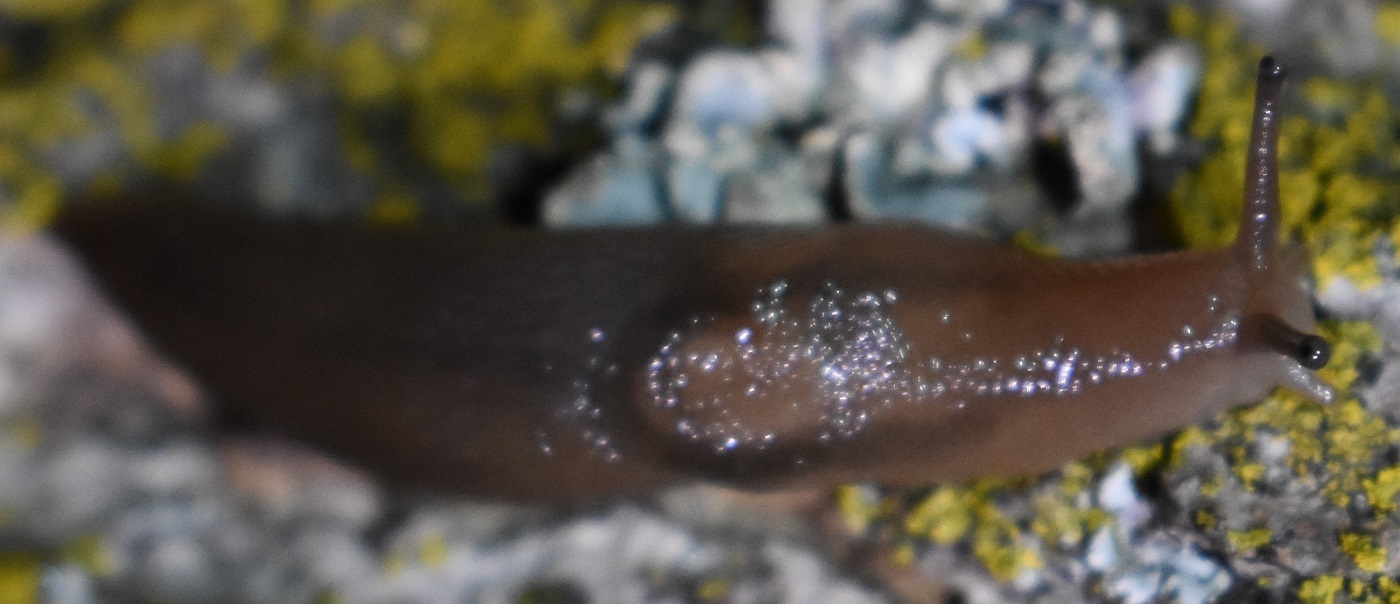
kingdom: Animalia
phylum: Mollusca
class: Gastropoda
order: Stylommatophora
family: Limacidae
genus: Ambigolimax
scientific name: Ambigolimax
